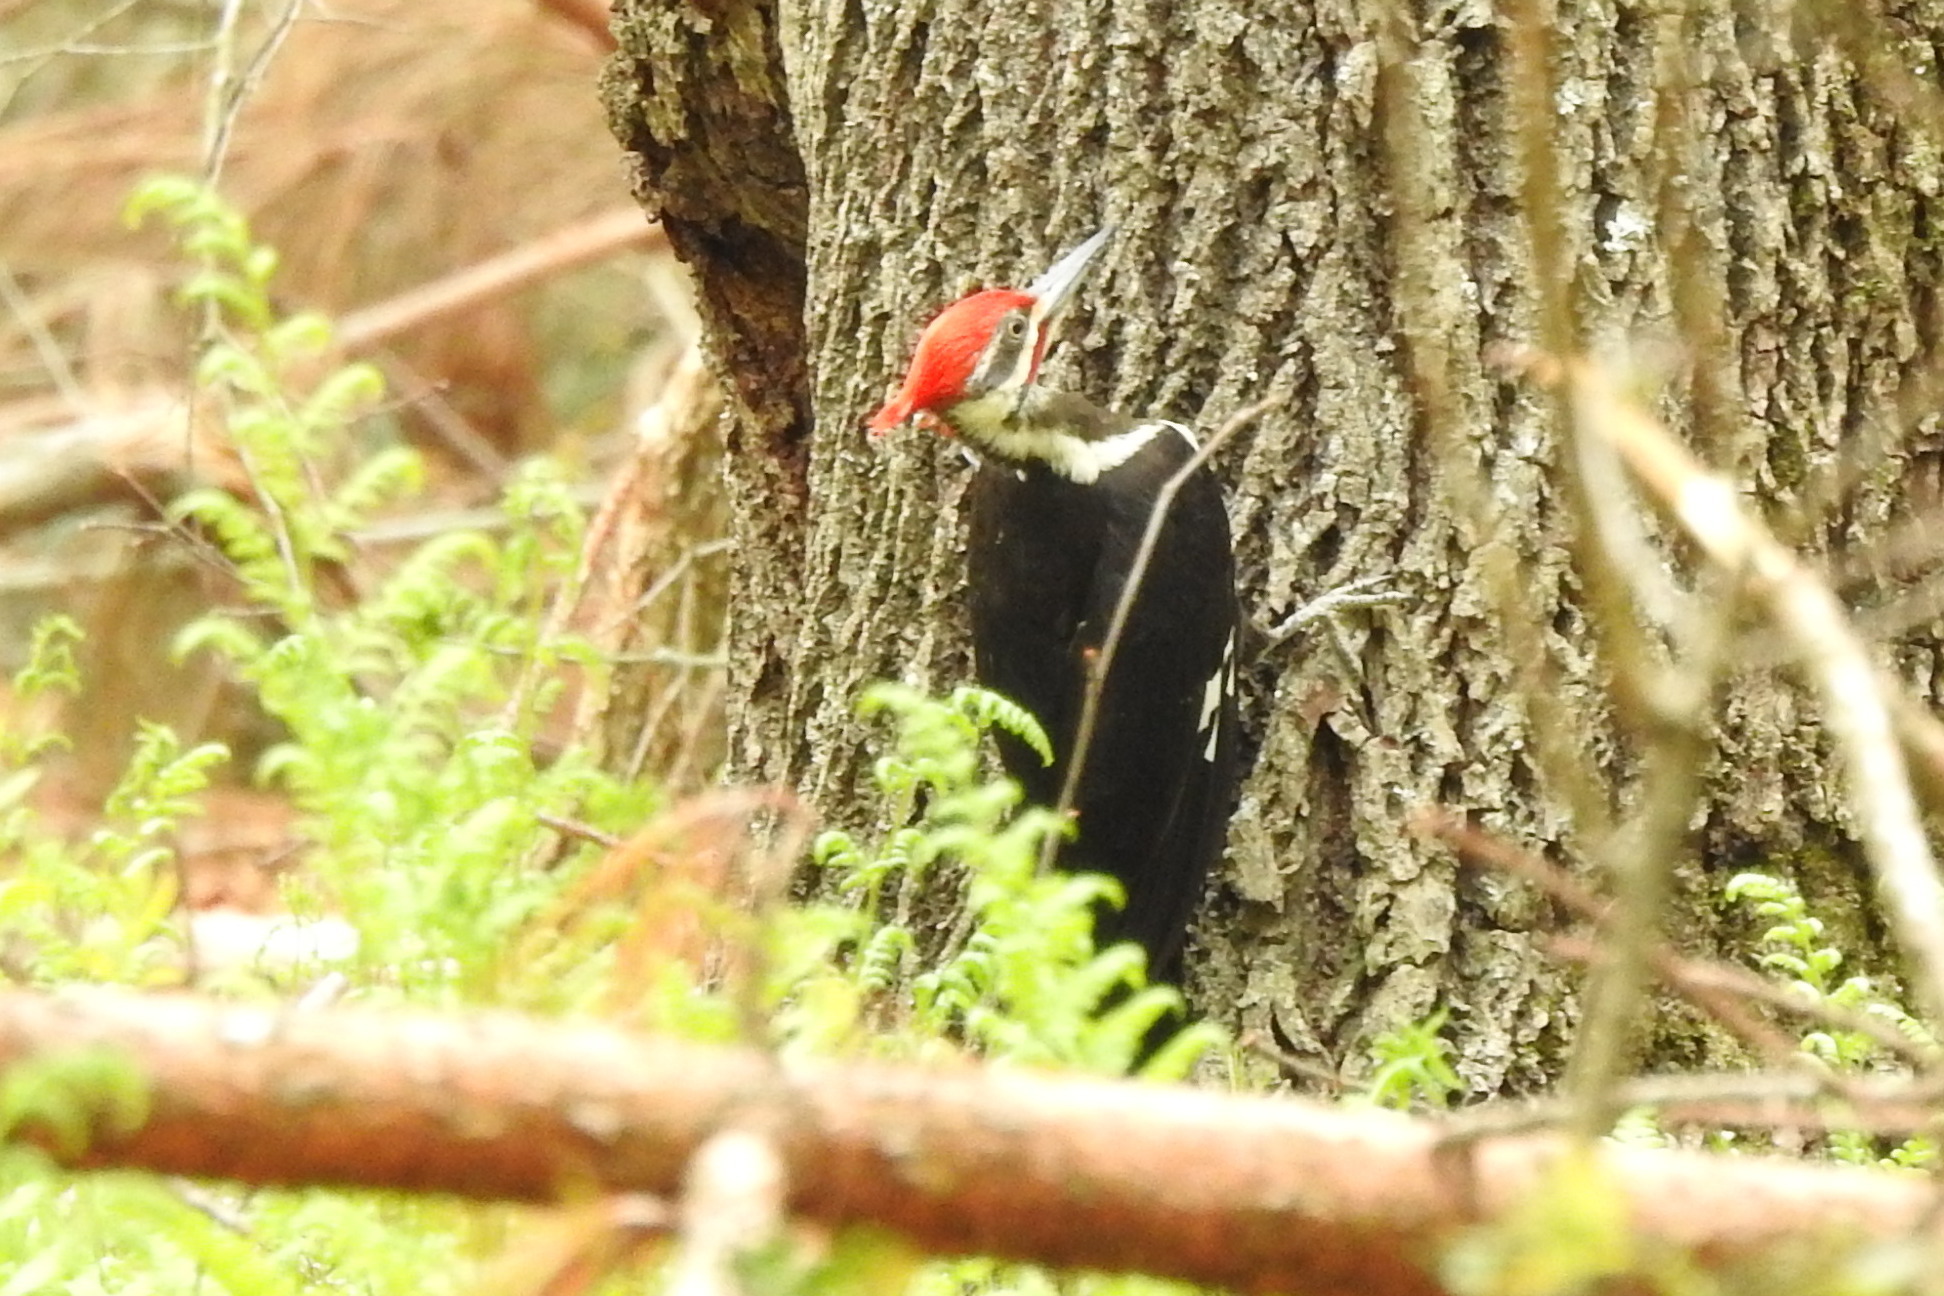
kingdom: Animalia
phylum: Chordata
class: Aves
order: Piciformes
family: Picidae
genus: Dryocopus
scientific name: Dryocopus pileatus
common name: Pileated woodpecker
